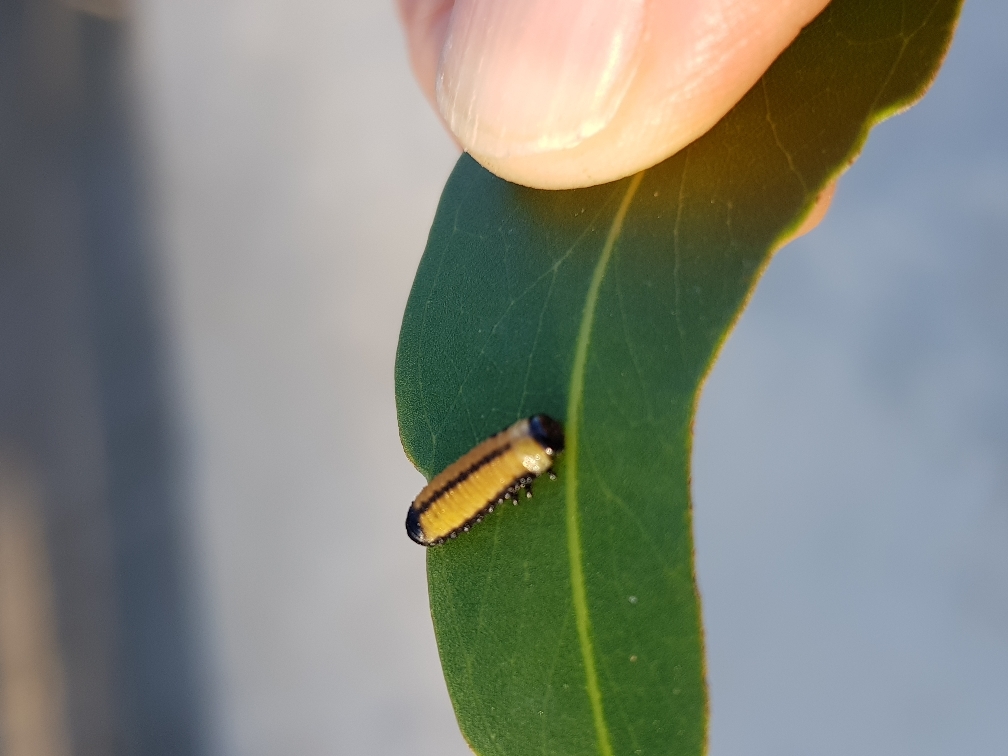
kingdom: Animalia
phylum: Arthropoda
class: Insecta
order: Coleoptera
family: Chrysomelidae
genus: Paropsisterna
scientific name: Paropsisterna cloelia
